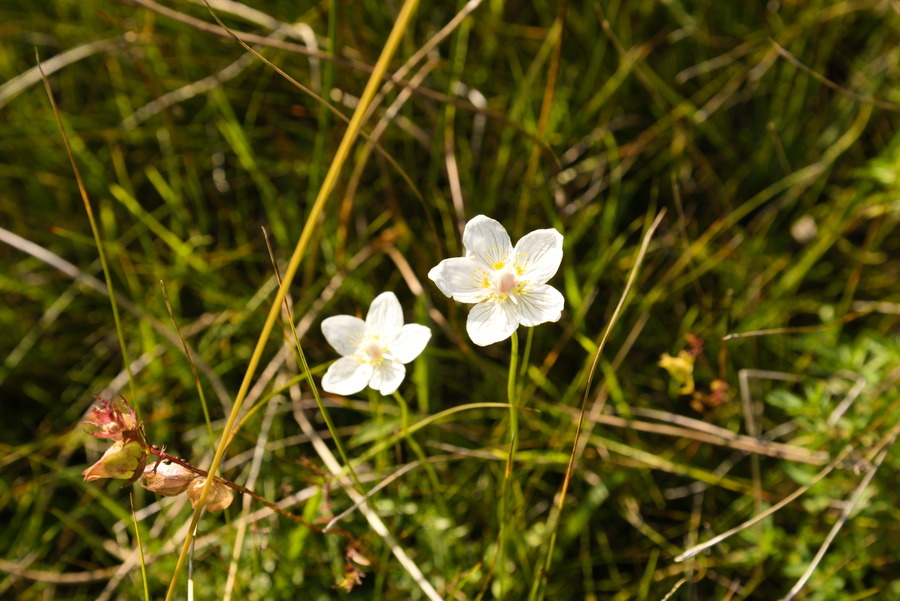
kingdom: Plantae
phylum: Tracheophyta
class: Magnoliopsida
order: Celastrales
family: Parnassiaceae
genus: Parnassia
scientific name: Parnassia palustris
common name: Grass-of-parnassus
